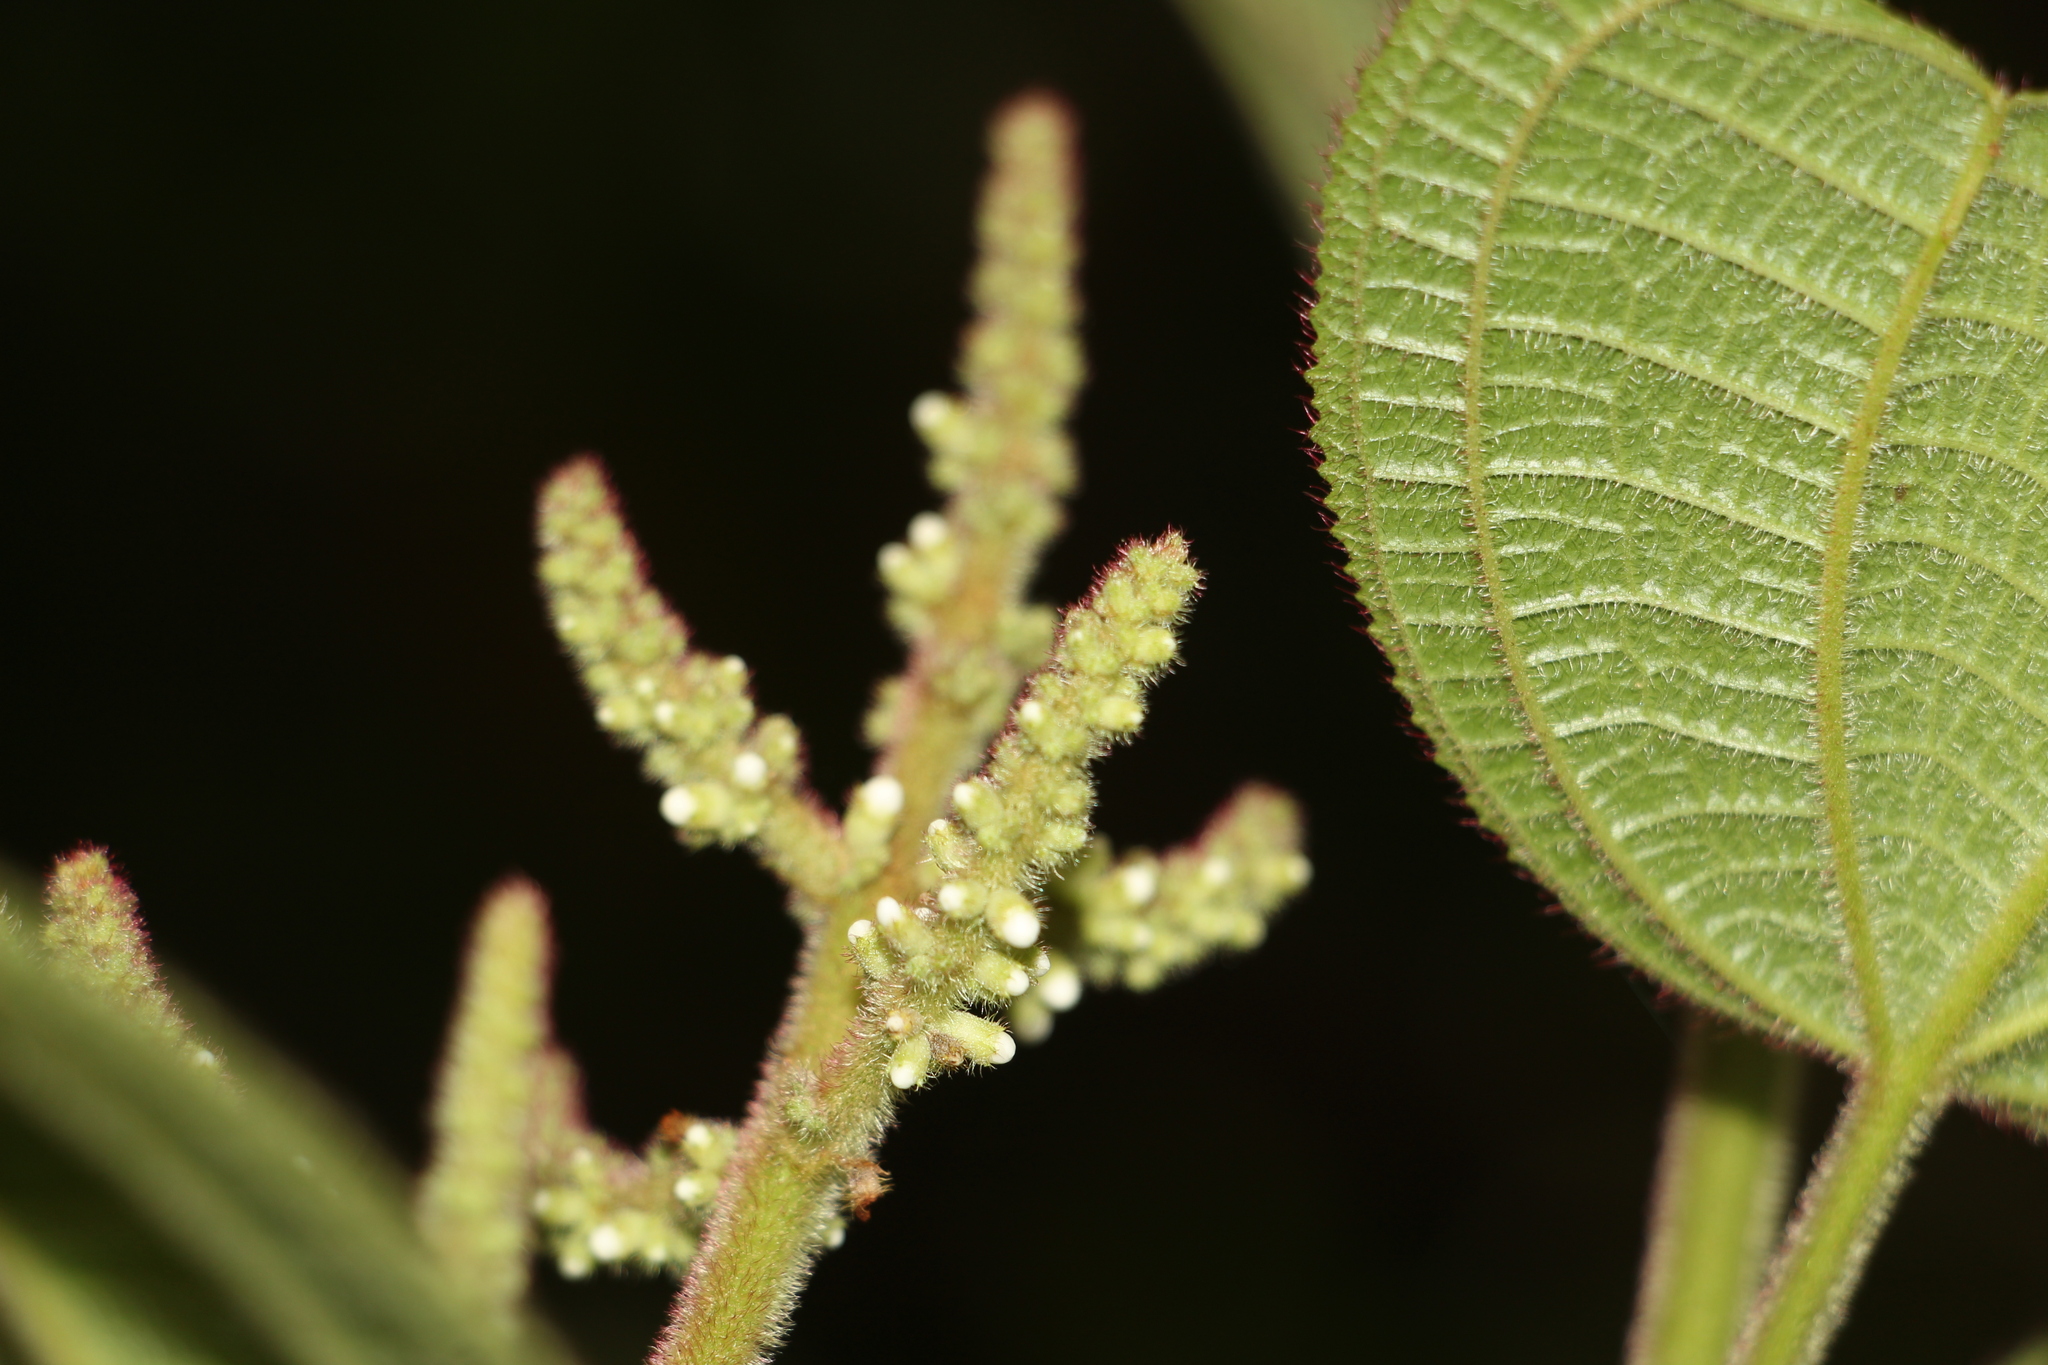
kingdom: Plantae
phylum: Tracheophyta
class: Magnoliopsida
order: Myrtales
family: Melastomataceae
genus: Miconia
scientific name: Miconia aeruginosa
